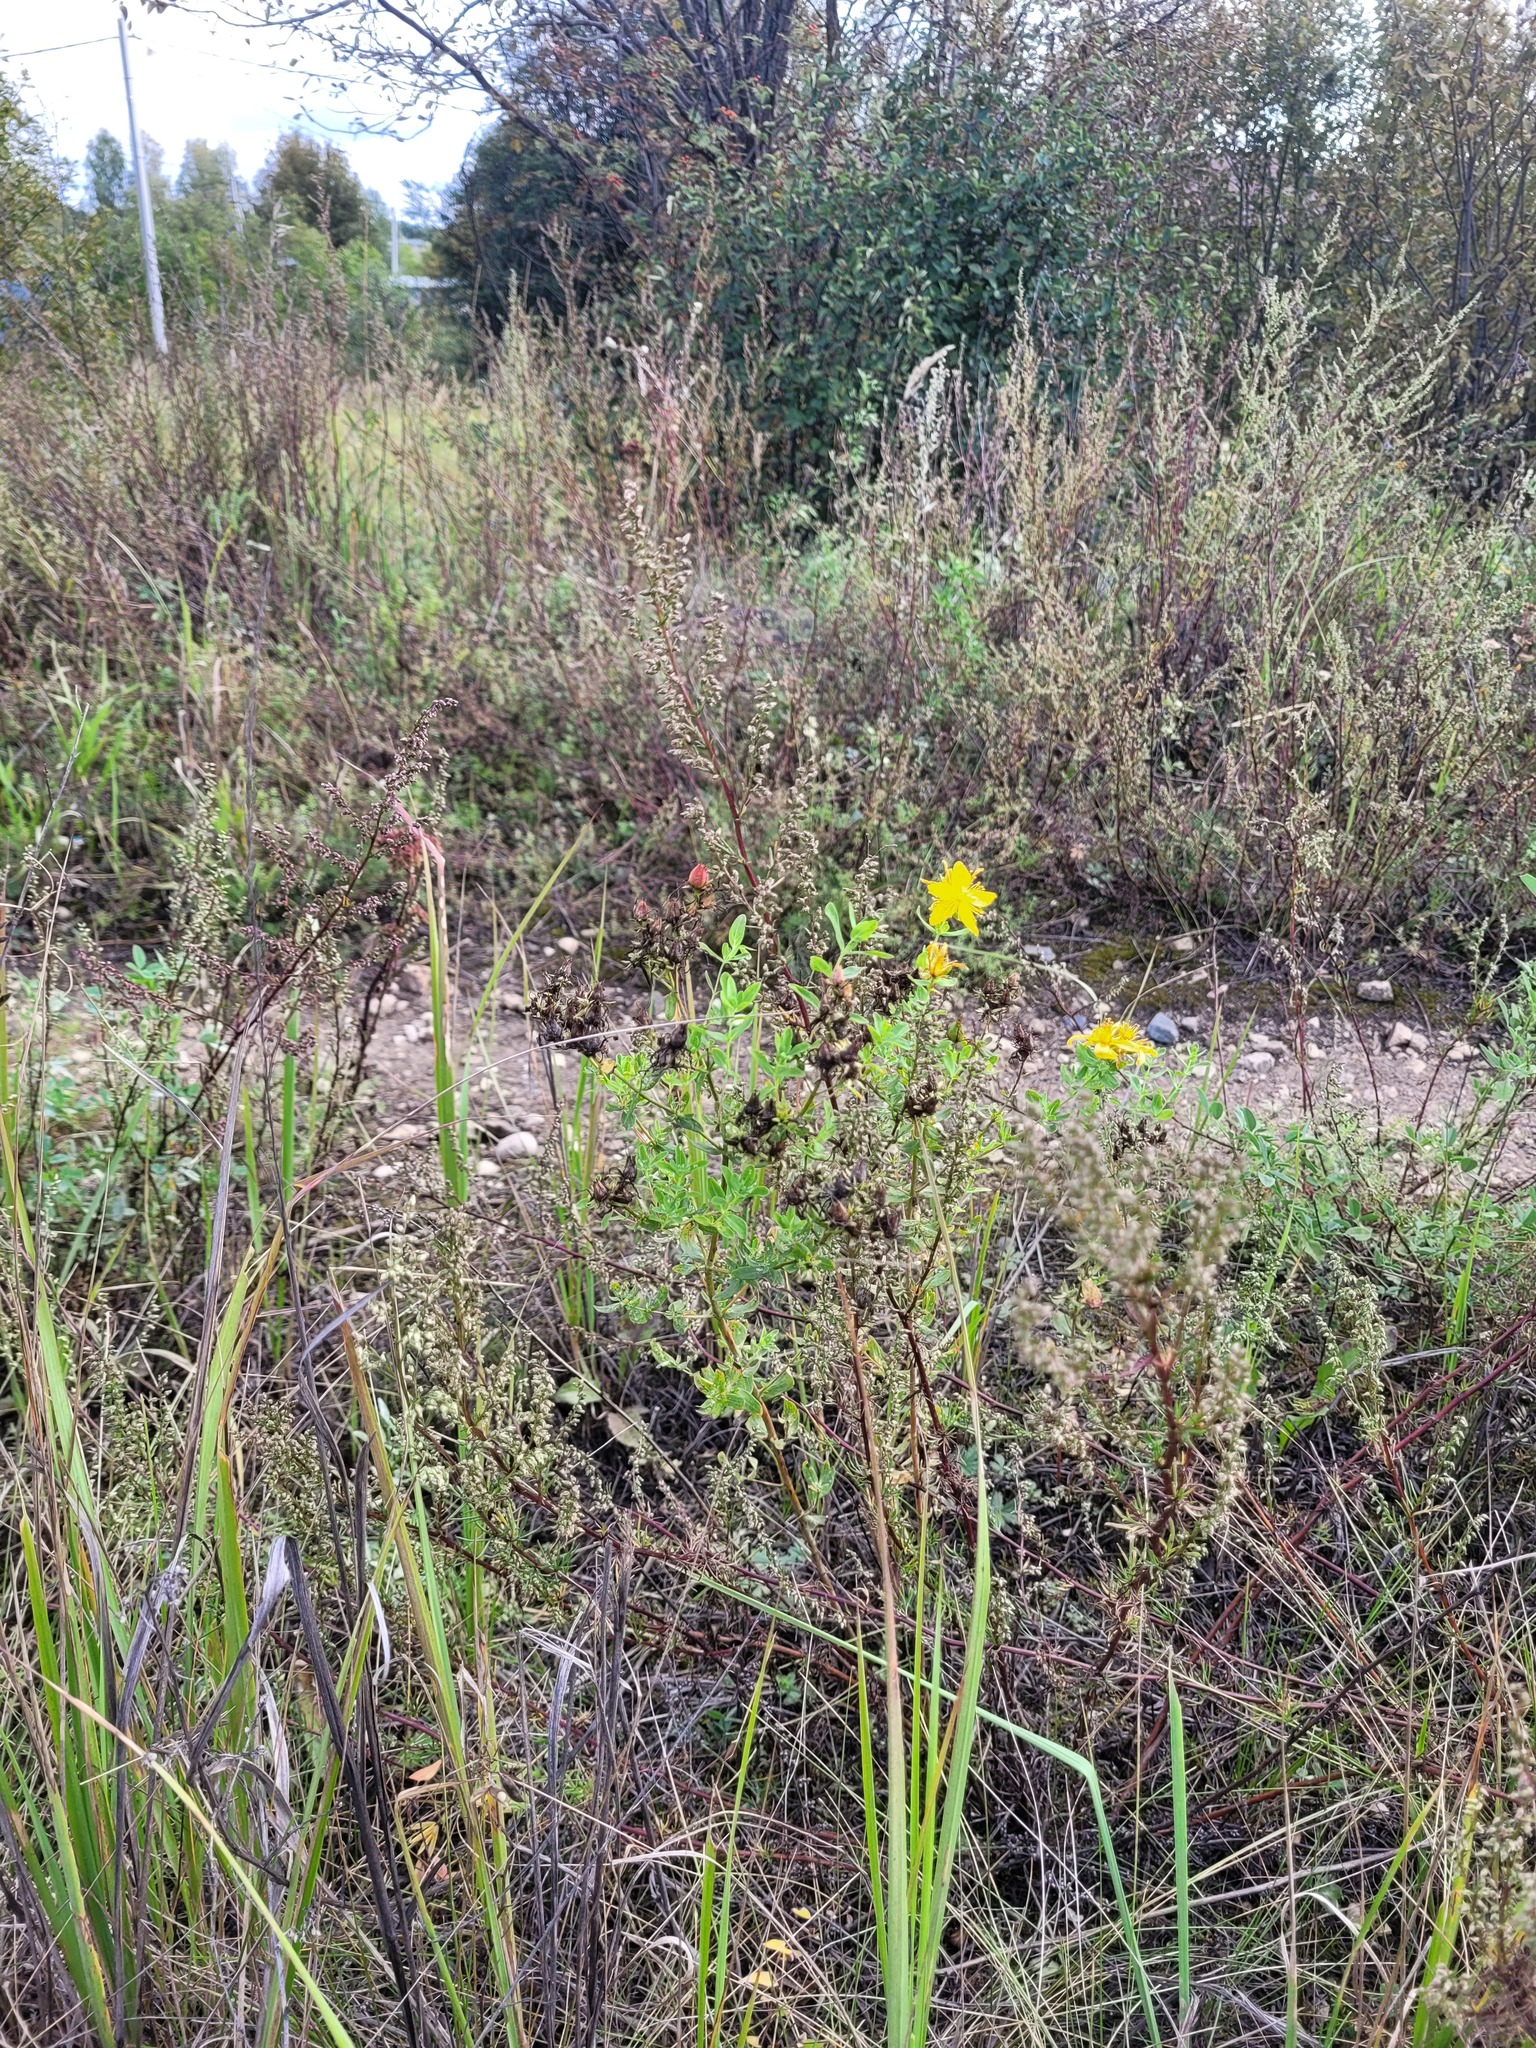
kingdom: Plantae
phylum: Tracheophyta
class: Magnoliopsida
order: Malpighiales
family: Hypericaceae
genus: Hypericum
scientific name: Hypericum perforatum
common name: Common st. johnswort
